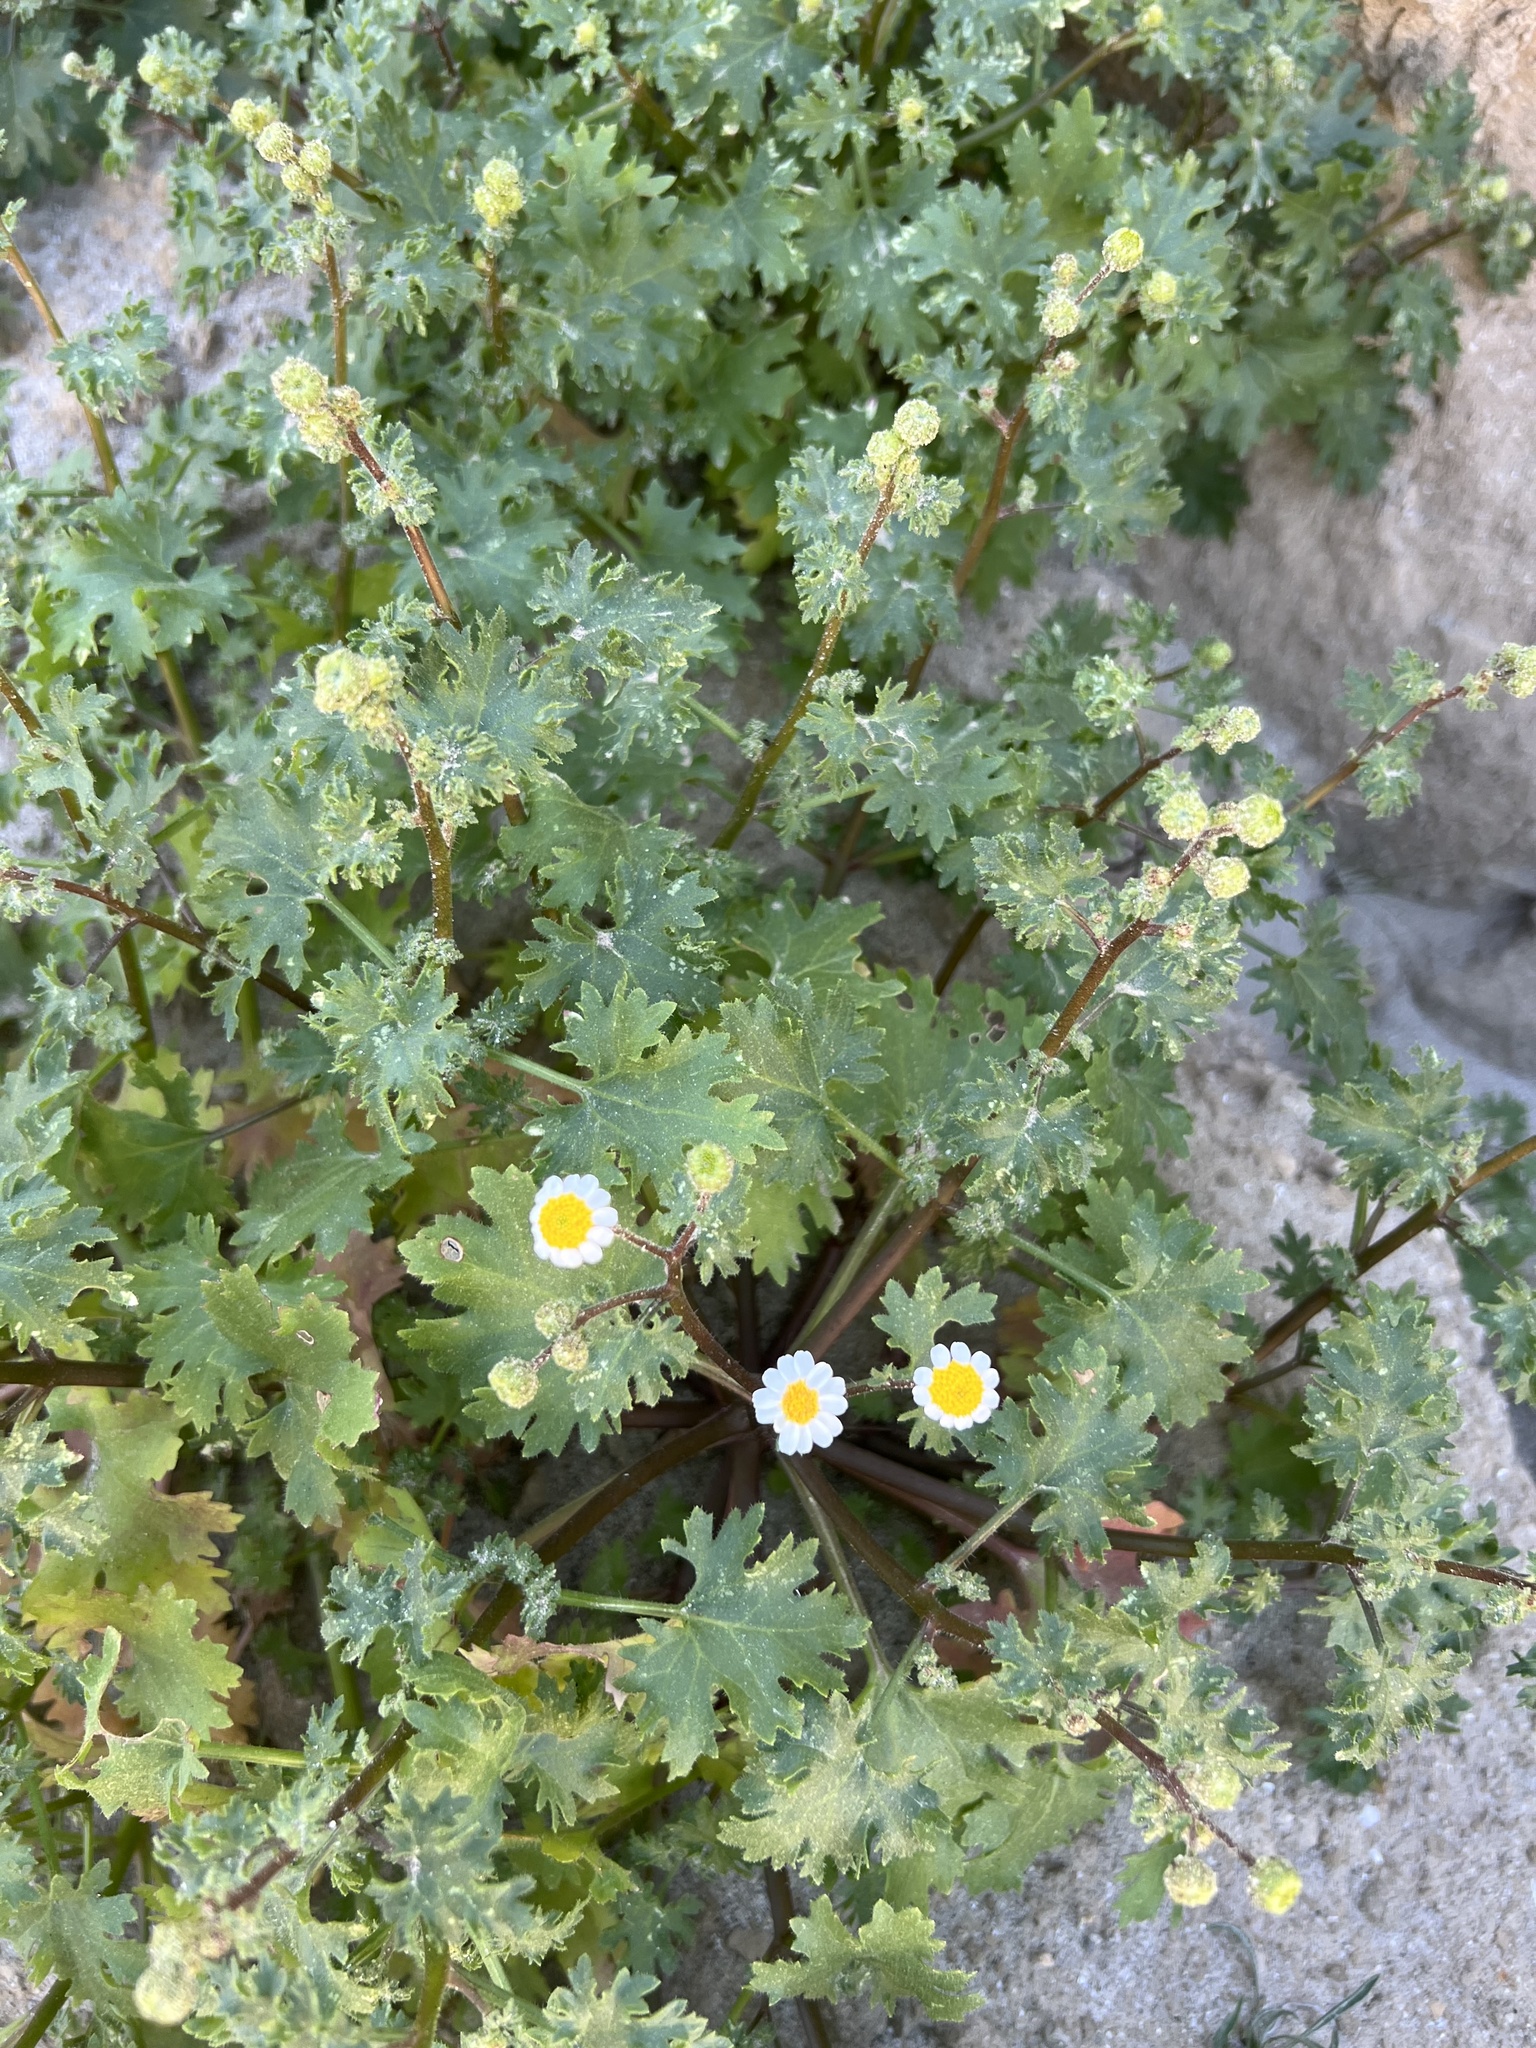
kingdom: Plantae
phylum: Tracheophyta
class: Magnoliopsida
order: Asterales
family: Asteraceae
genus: Laphamia
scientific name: Laphamia emoryi
